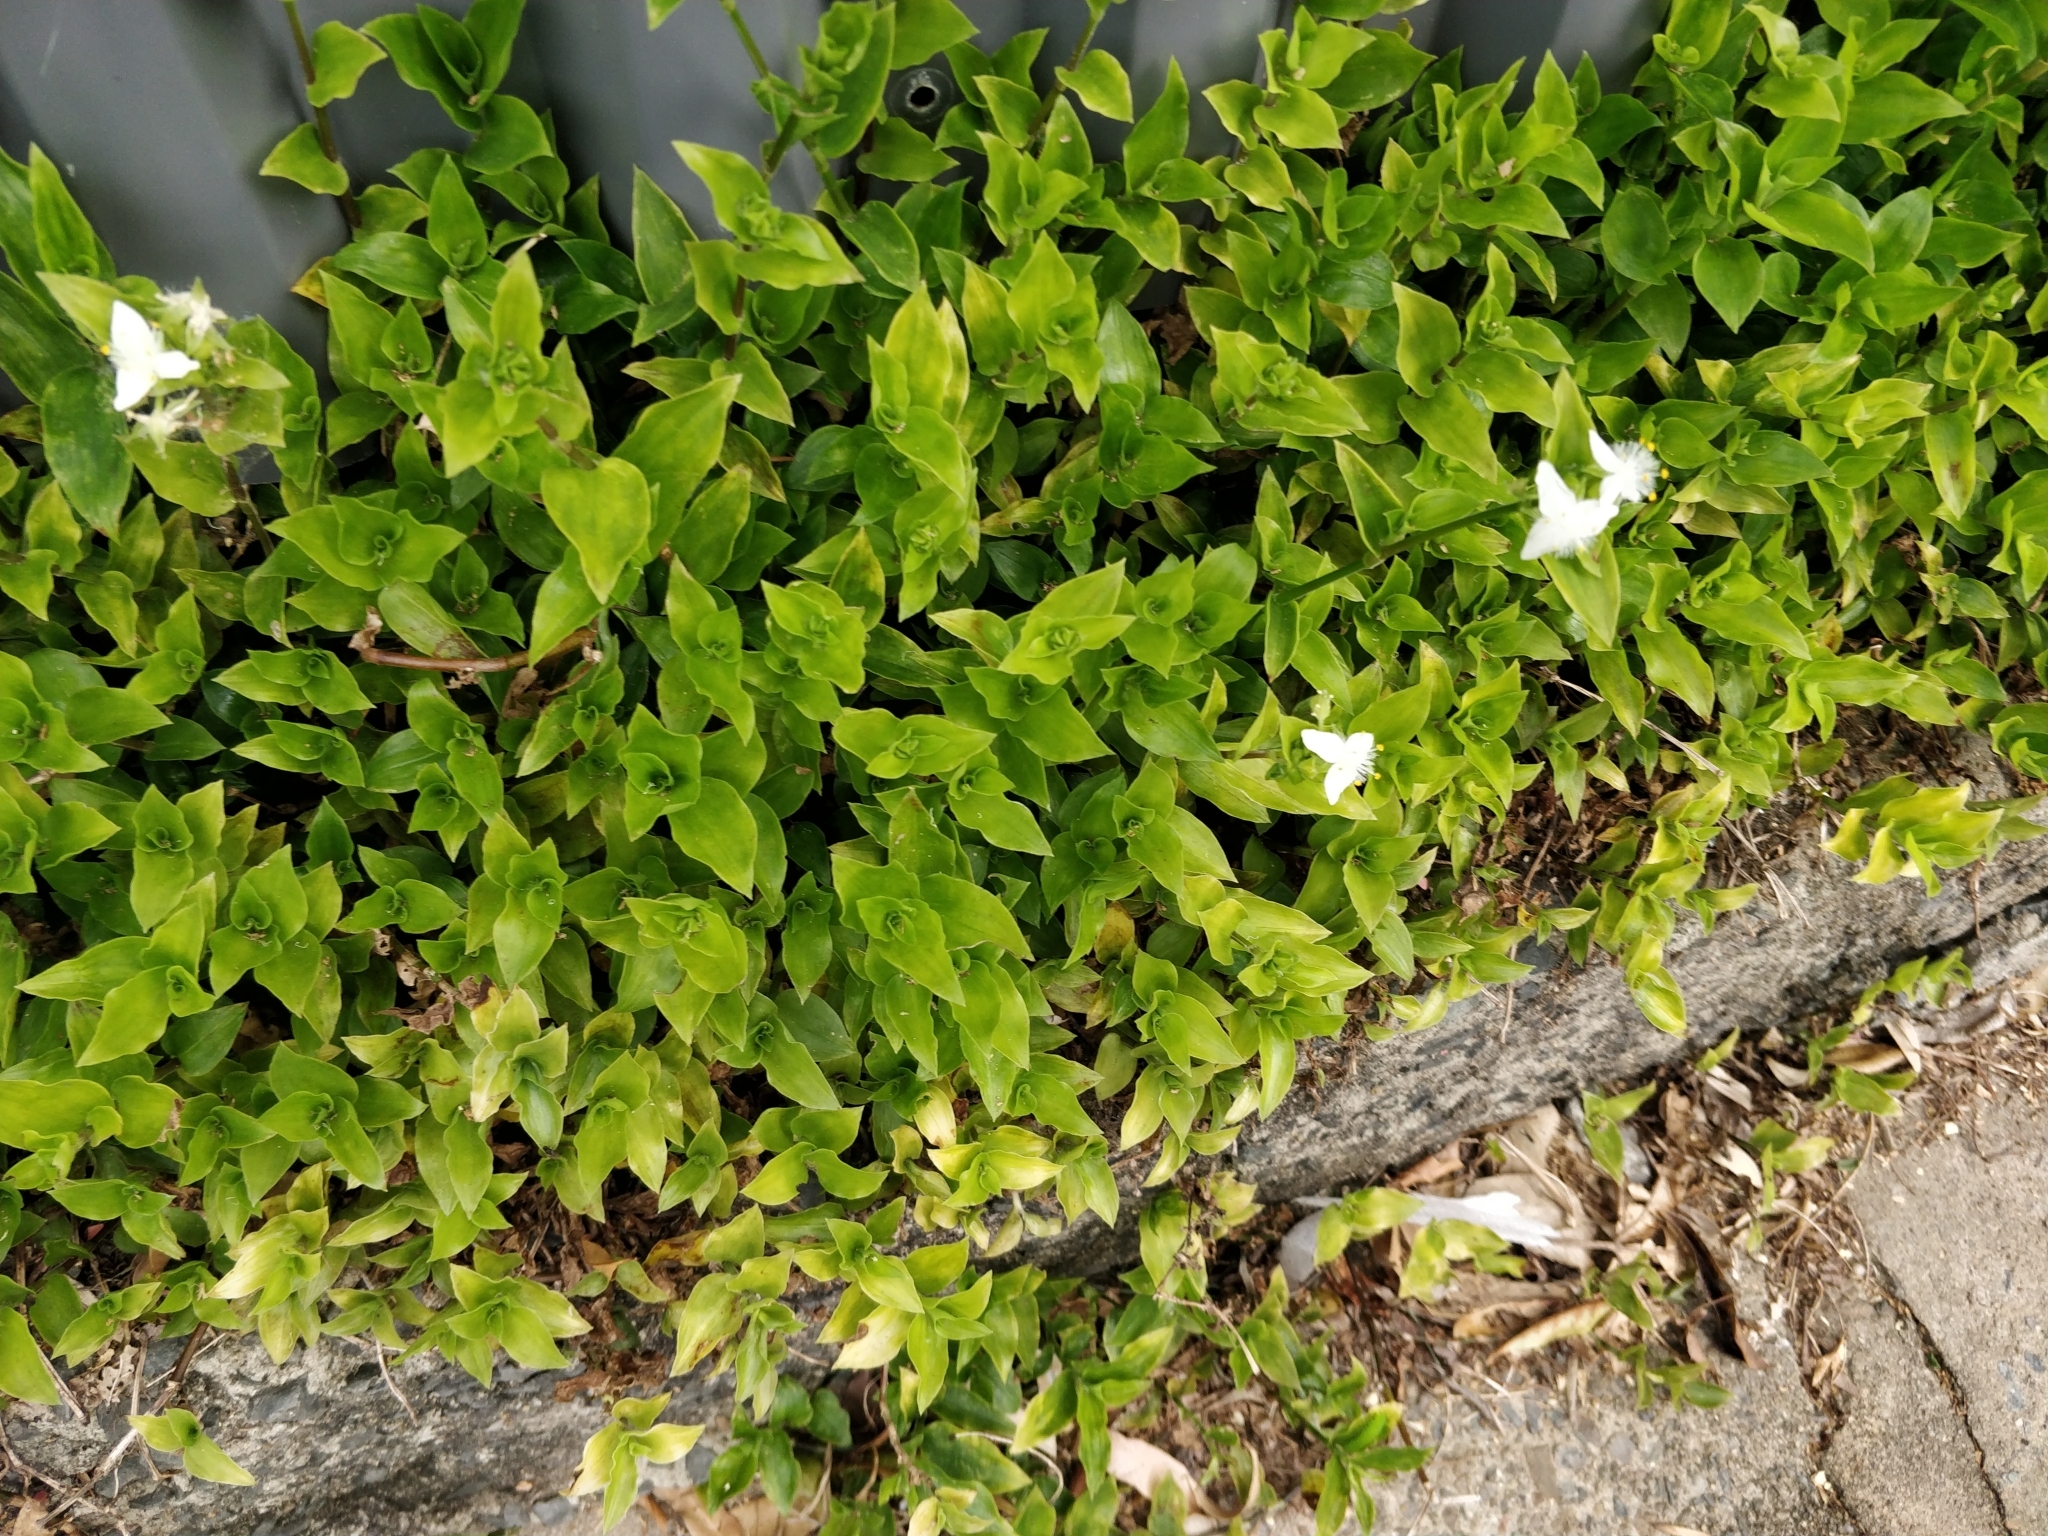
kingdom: Plantae
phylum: Tracheophyta
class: Liliopsida
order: Commelinales
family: Commelinaceae
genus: Tradescantia
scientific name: Tradescantia fluminensis
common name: Wandering-jew
